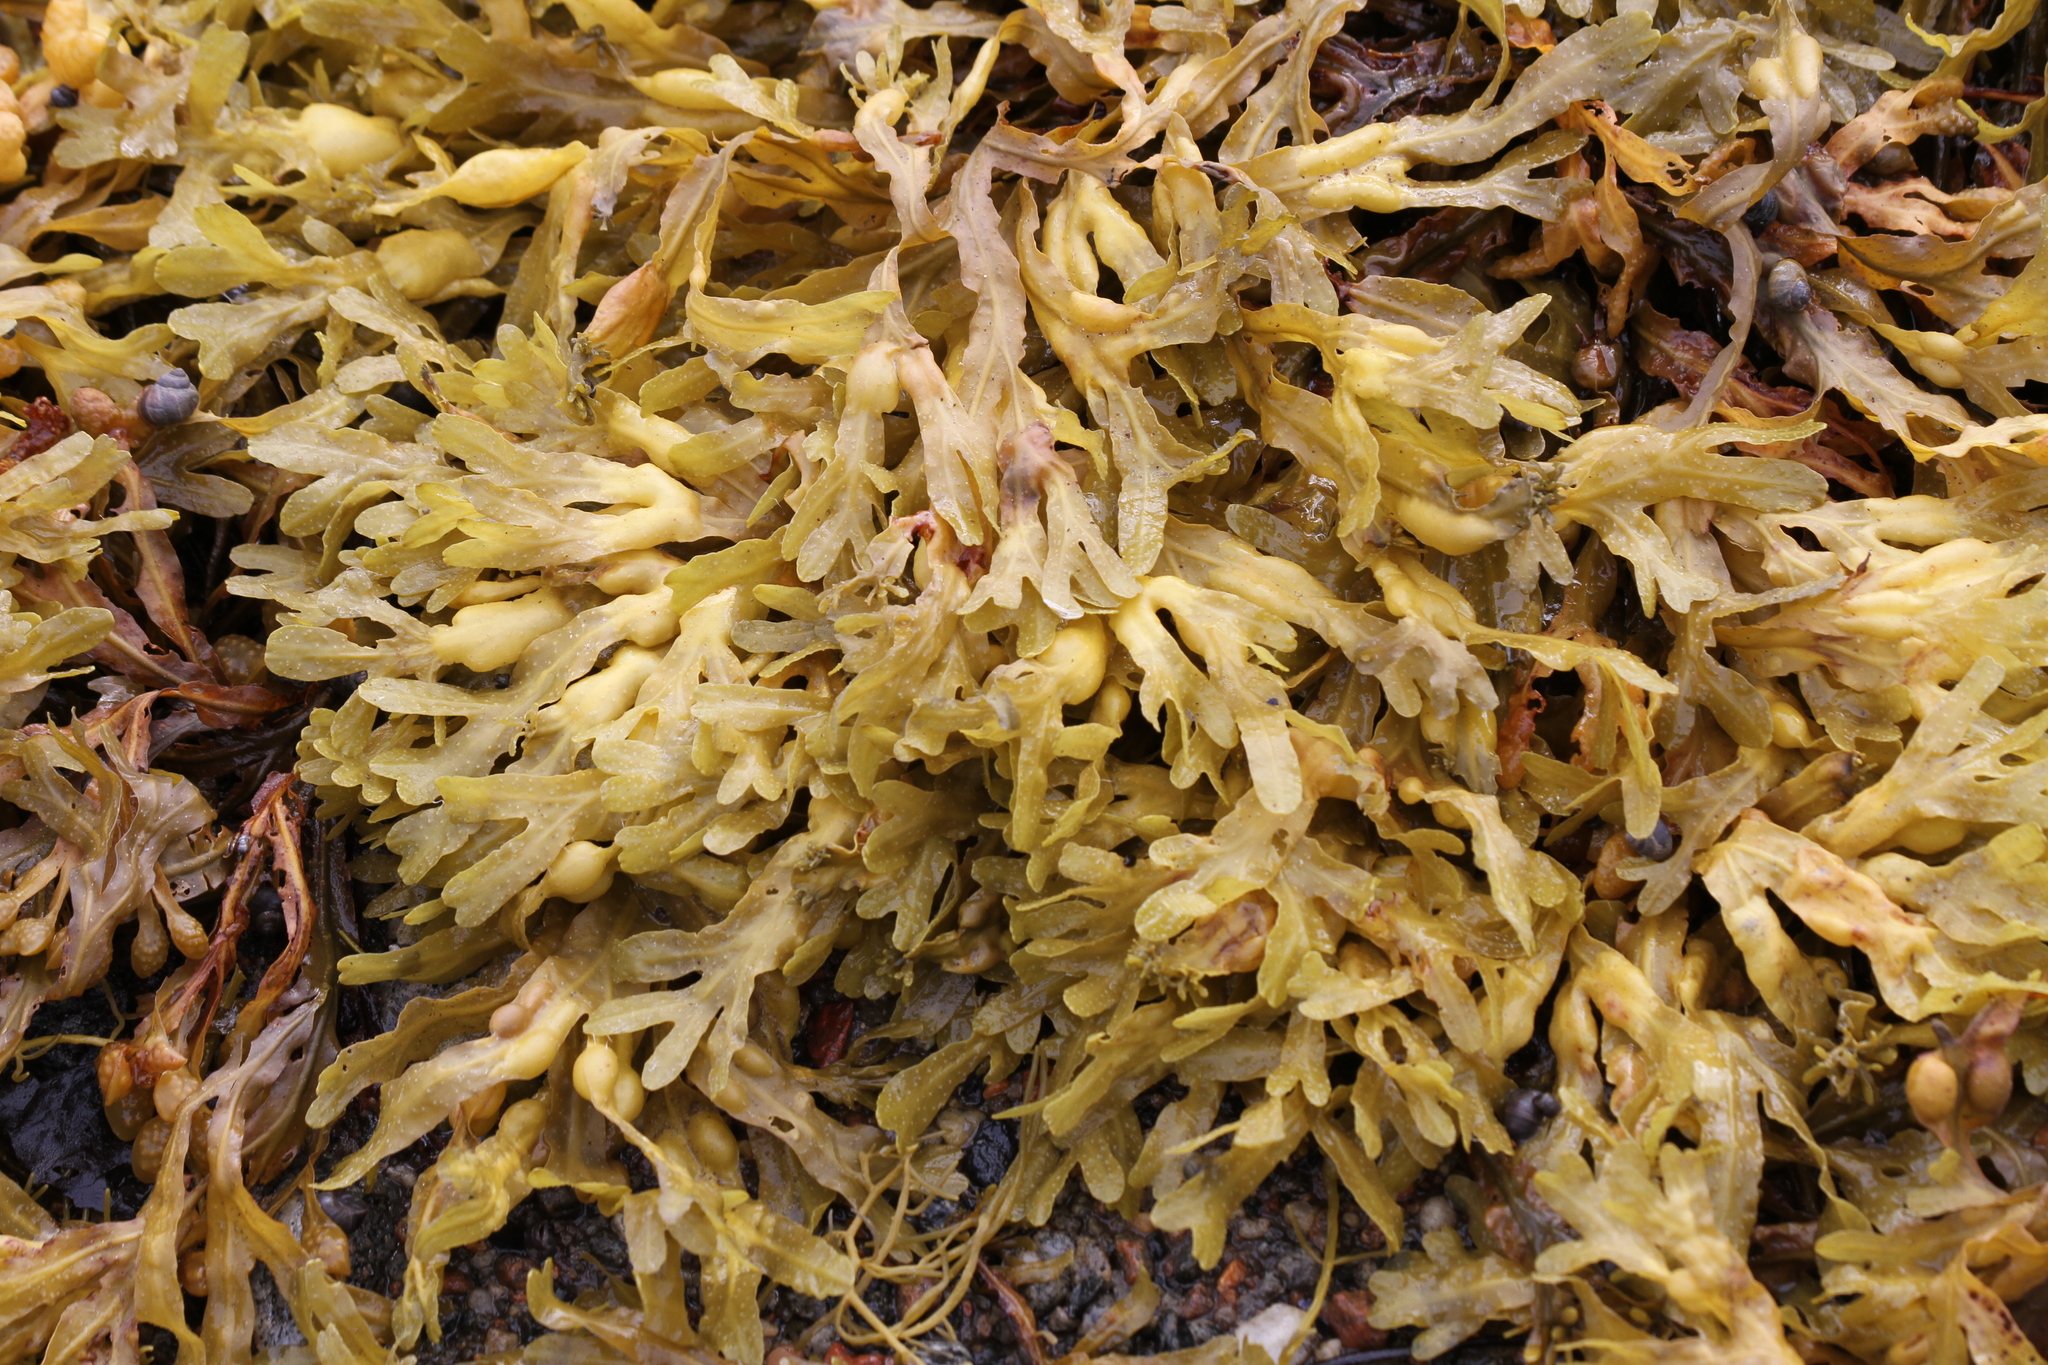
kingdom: Chromista
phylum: Ochrophyta
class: Phaeophyceae
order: Fucales
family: Fucaceae
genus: Fucus
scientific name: Fucus vesiculosus
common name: Bladder wrack
